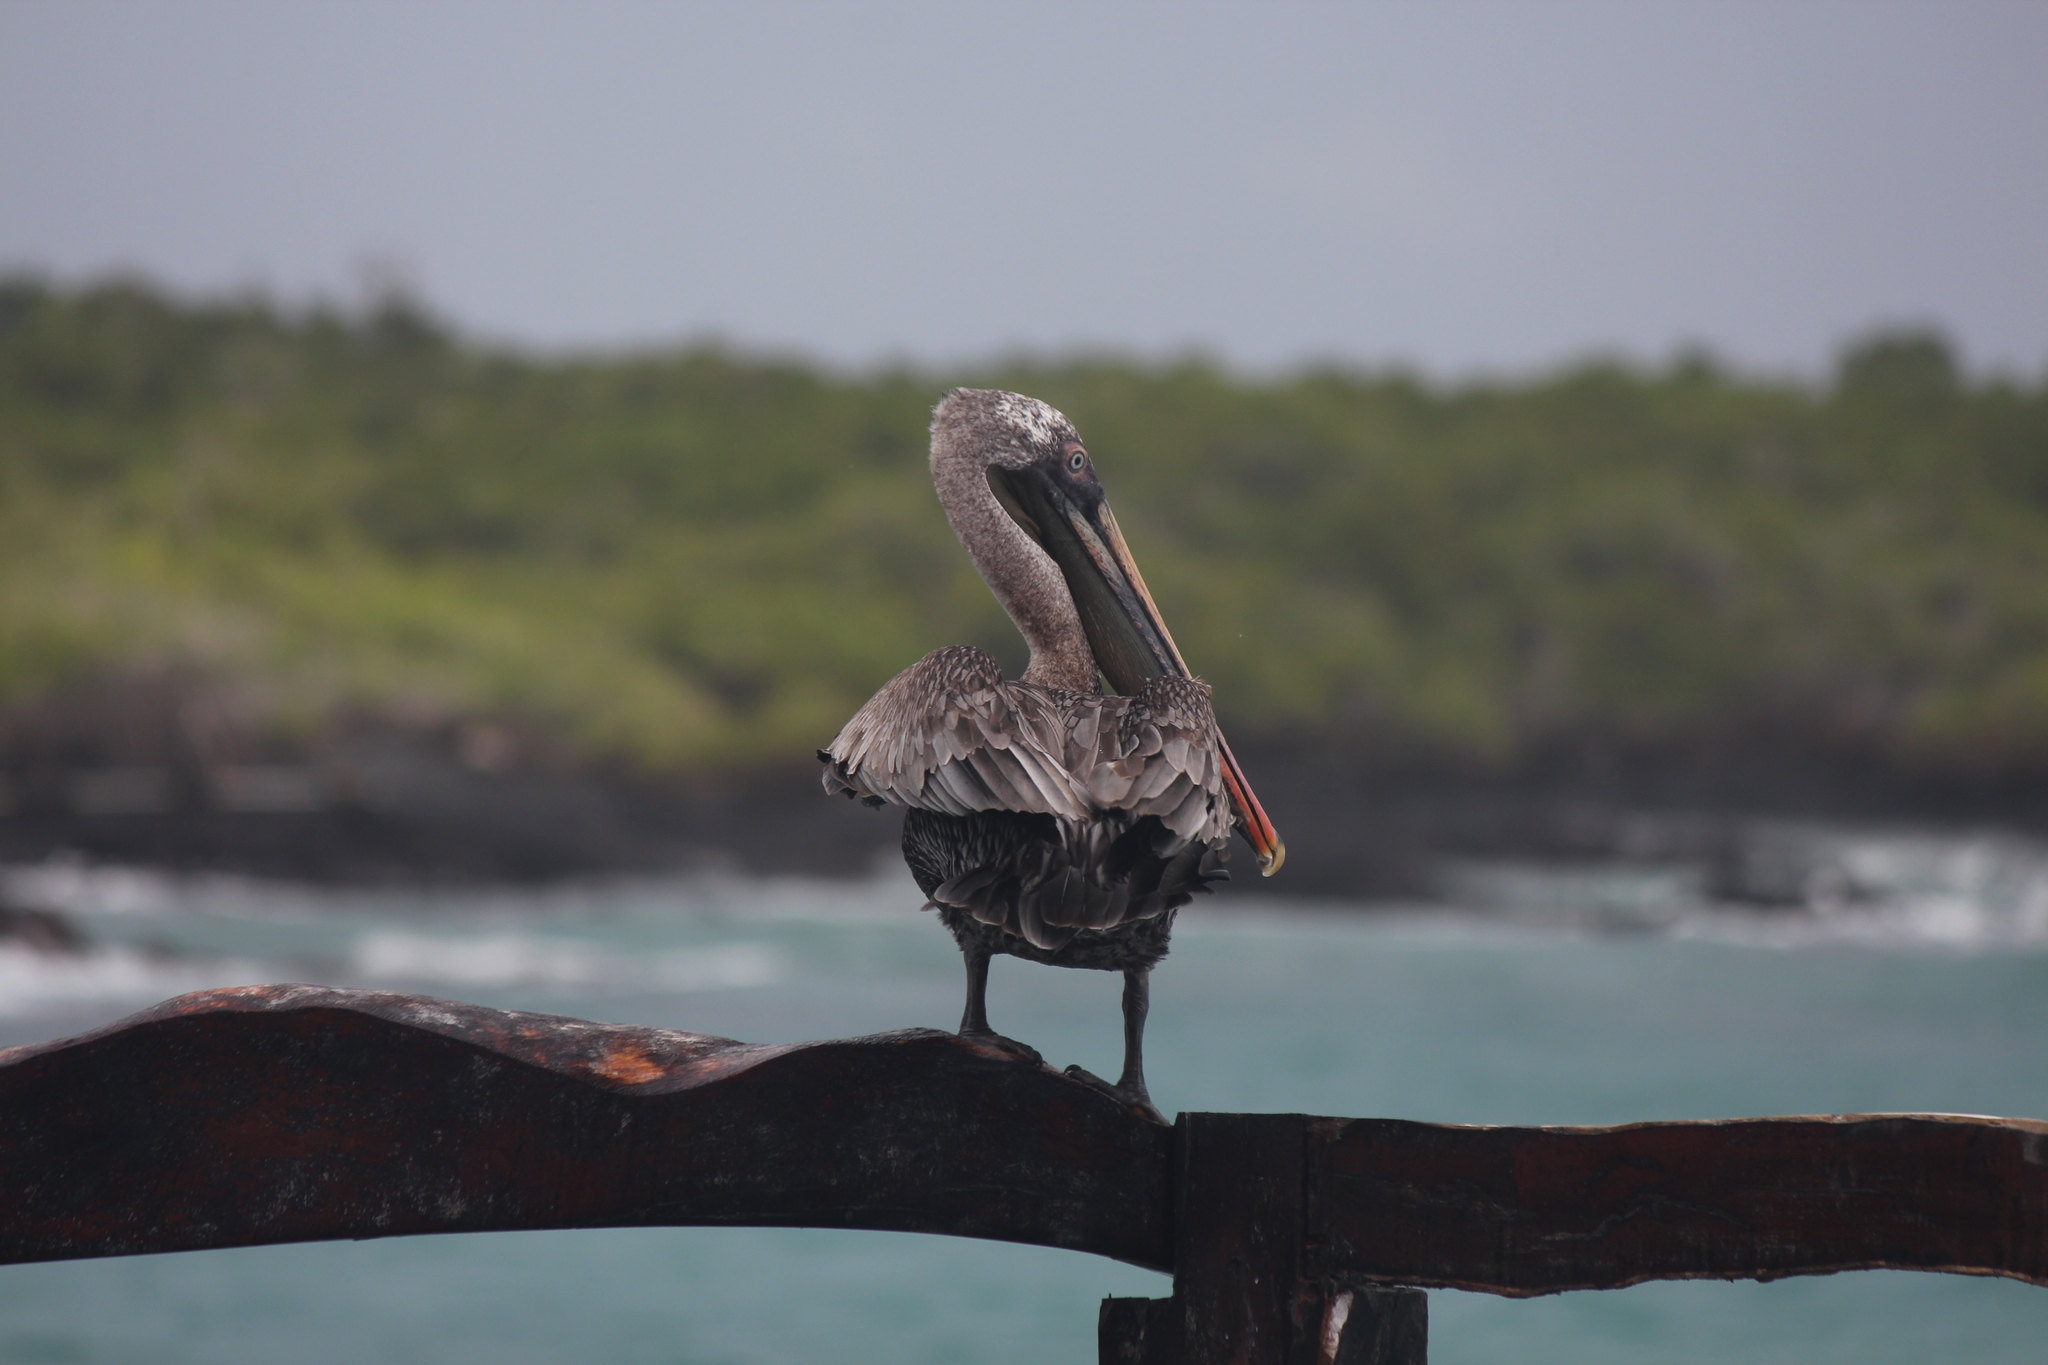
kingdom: Animalia
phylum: Chordata
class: Aves
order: Pelecaniformes
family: Pelecanidae
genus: Pelecanus
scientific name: Pelecanus occidentalis
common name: Brown pelican
